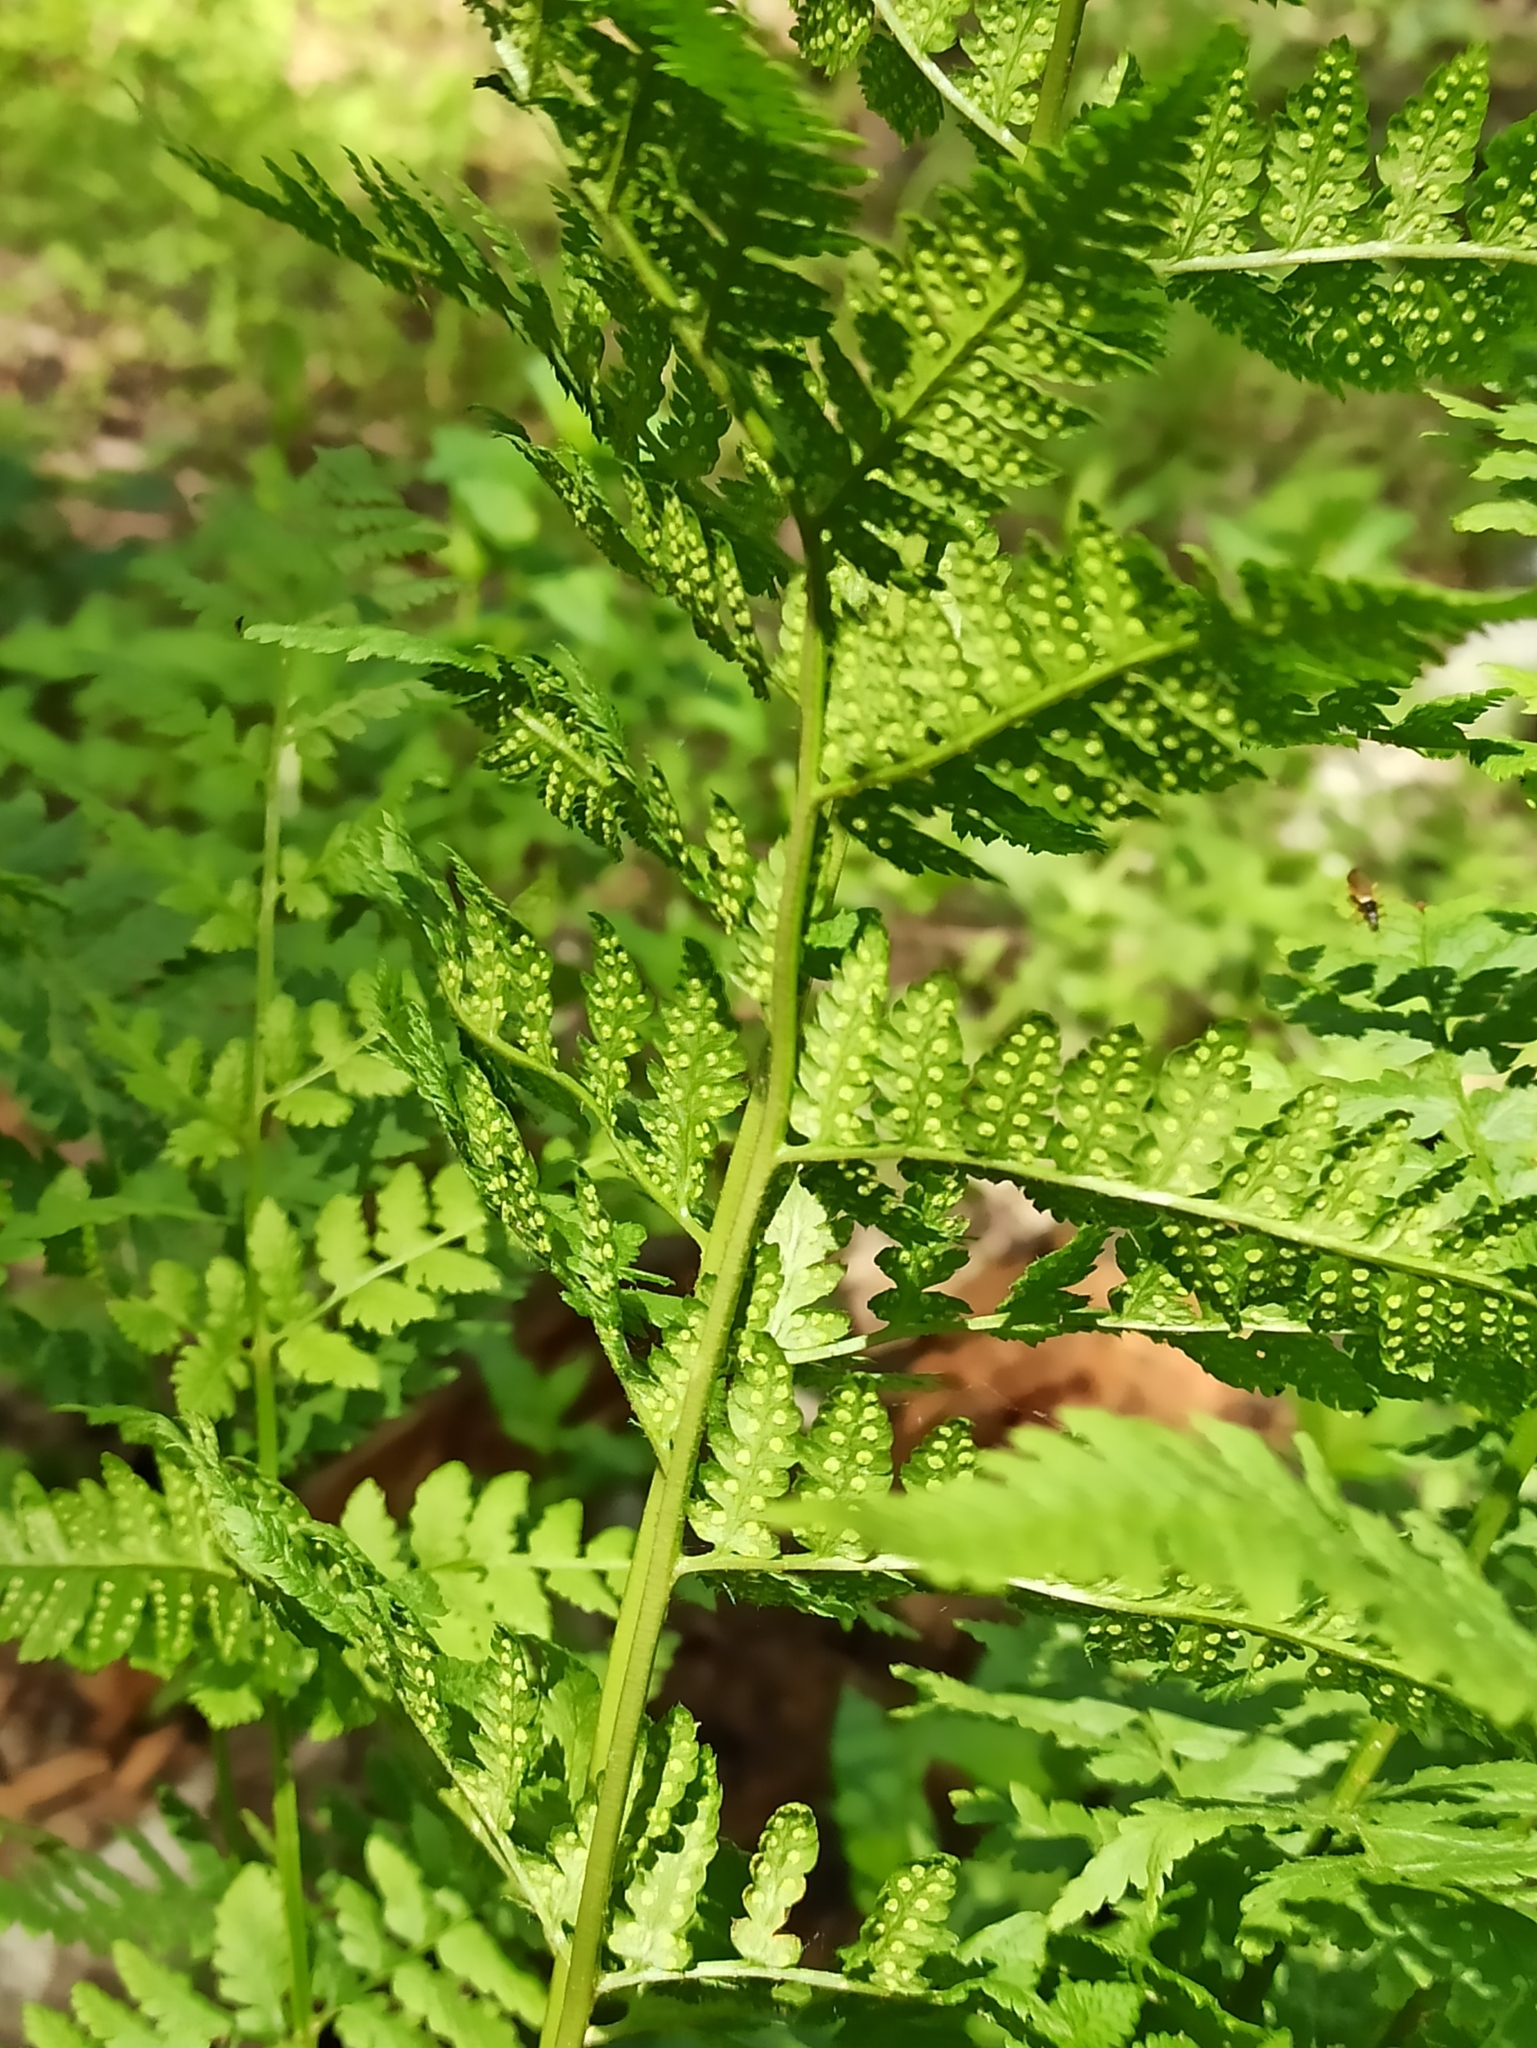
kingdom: Plantae
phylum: Tracheophyta
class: Polypodiopsida
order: Polypodiales
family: Dryopteridaceae
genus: Dryopteris
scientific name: Dryopteris carthusiana
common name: Narrow buckler-fern
